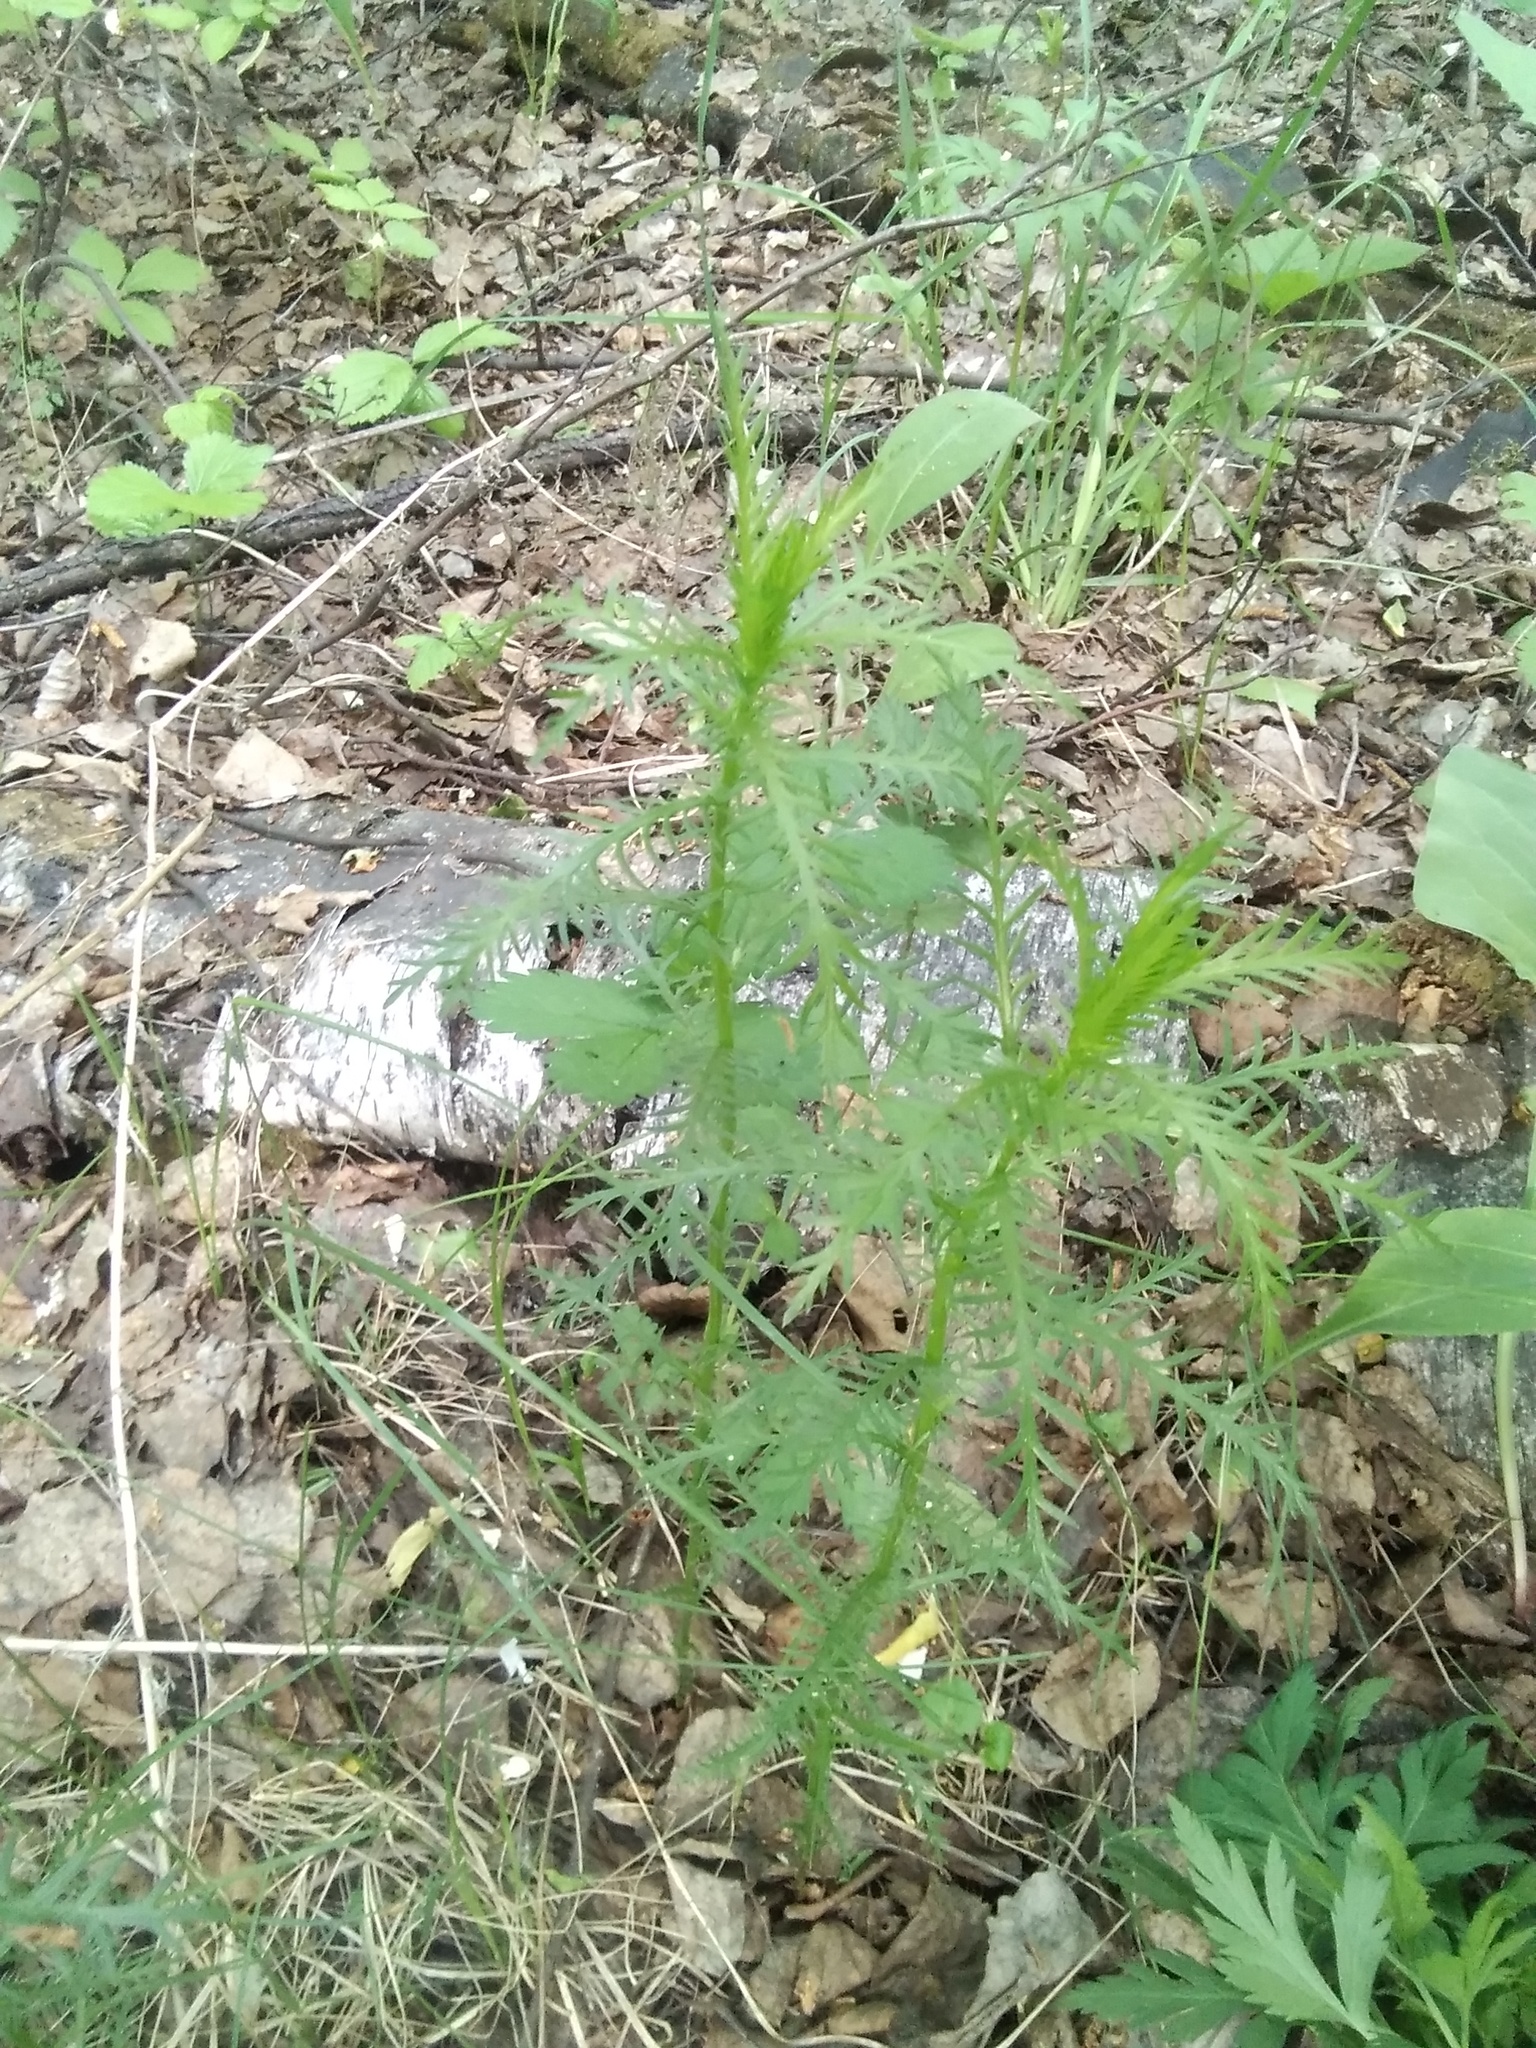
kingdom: Plantae
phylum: Tracheophyta
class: Magnoliopsida
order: Asterales
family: Asteraceae
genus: Achillea
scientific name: Achillea impatiens
